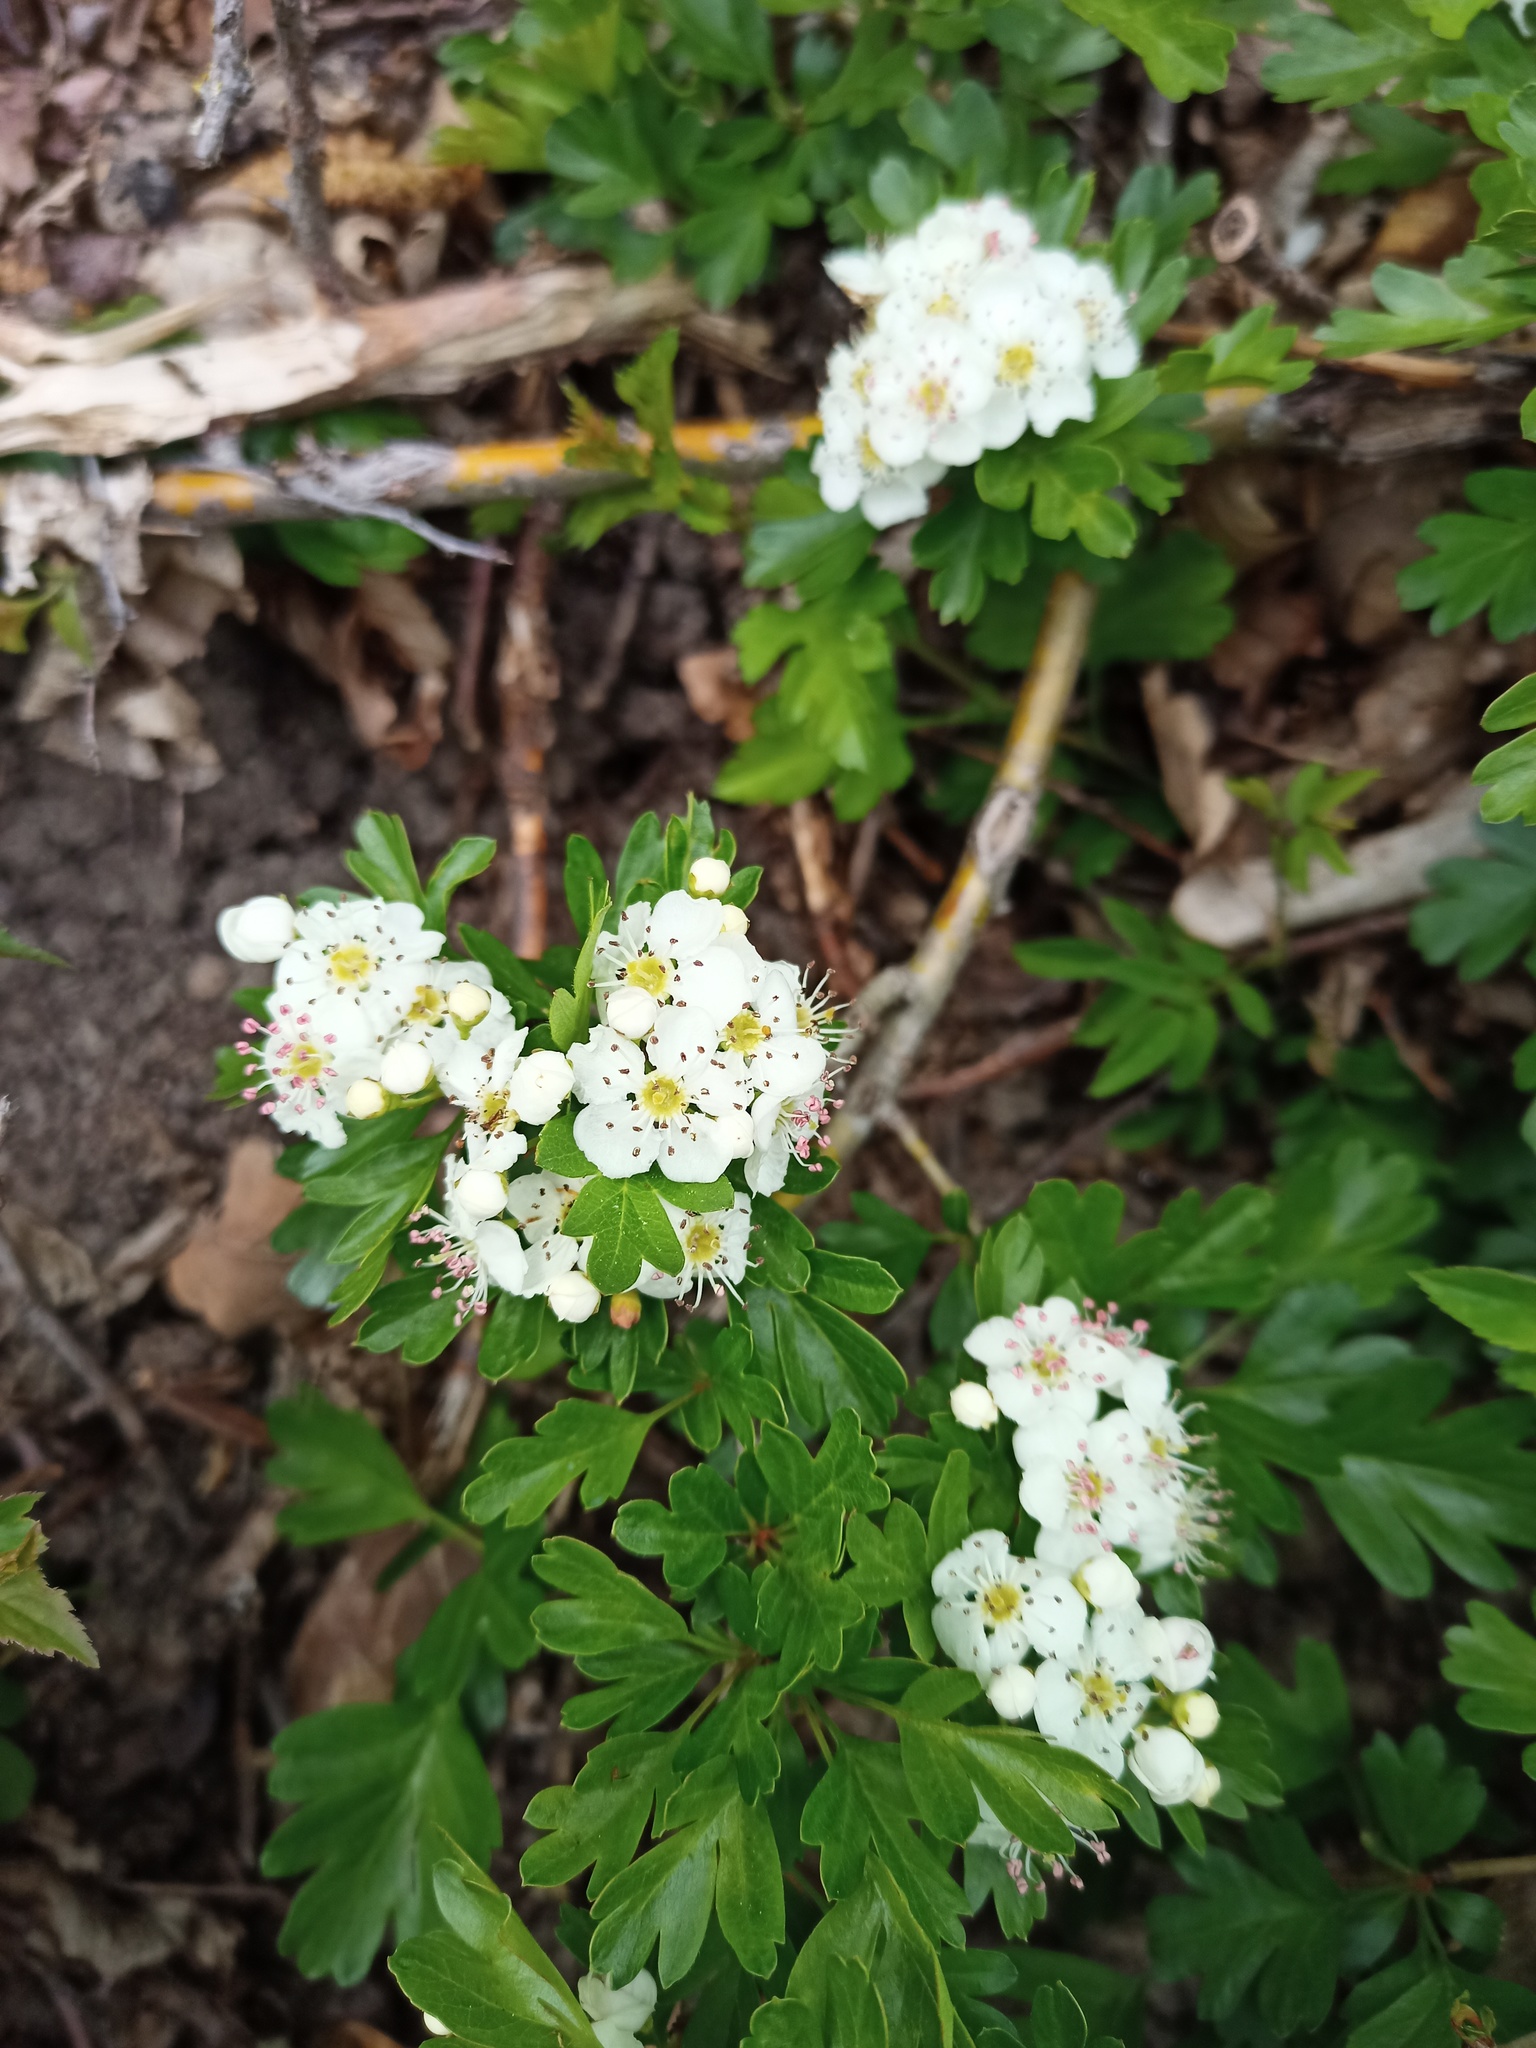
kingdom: Plantae
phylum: Tracheophyta
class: Magnoliopsida
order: Rosales
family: Rosaceae
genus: Crataegus
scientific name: Crataegus monogyna
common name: Hawthorn
